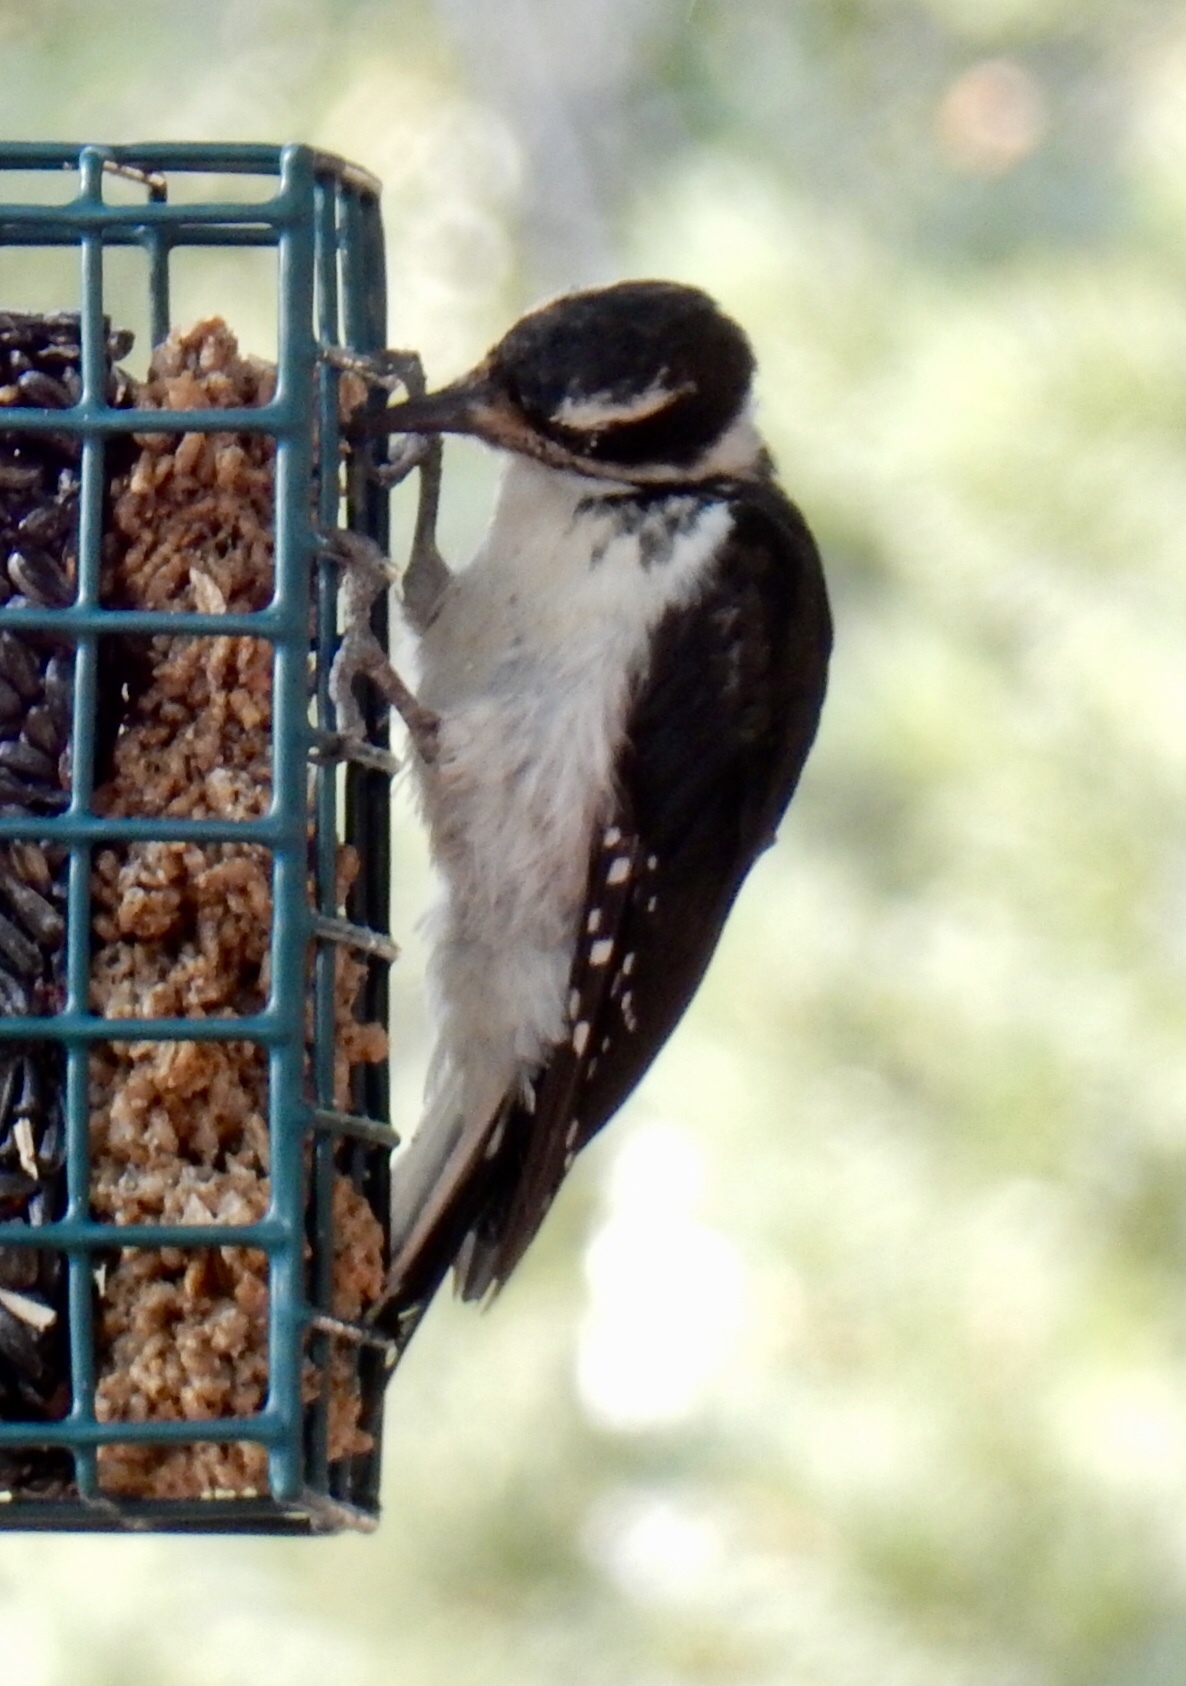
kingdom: Animalia
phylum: Chordata
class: Aves
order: Piciformes
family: Picidae
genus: Leuconotopicus
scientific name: Leuconotopicus villosus
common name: Hairy woodpecker
